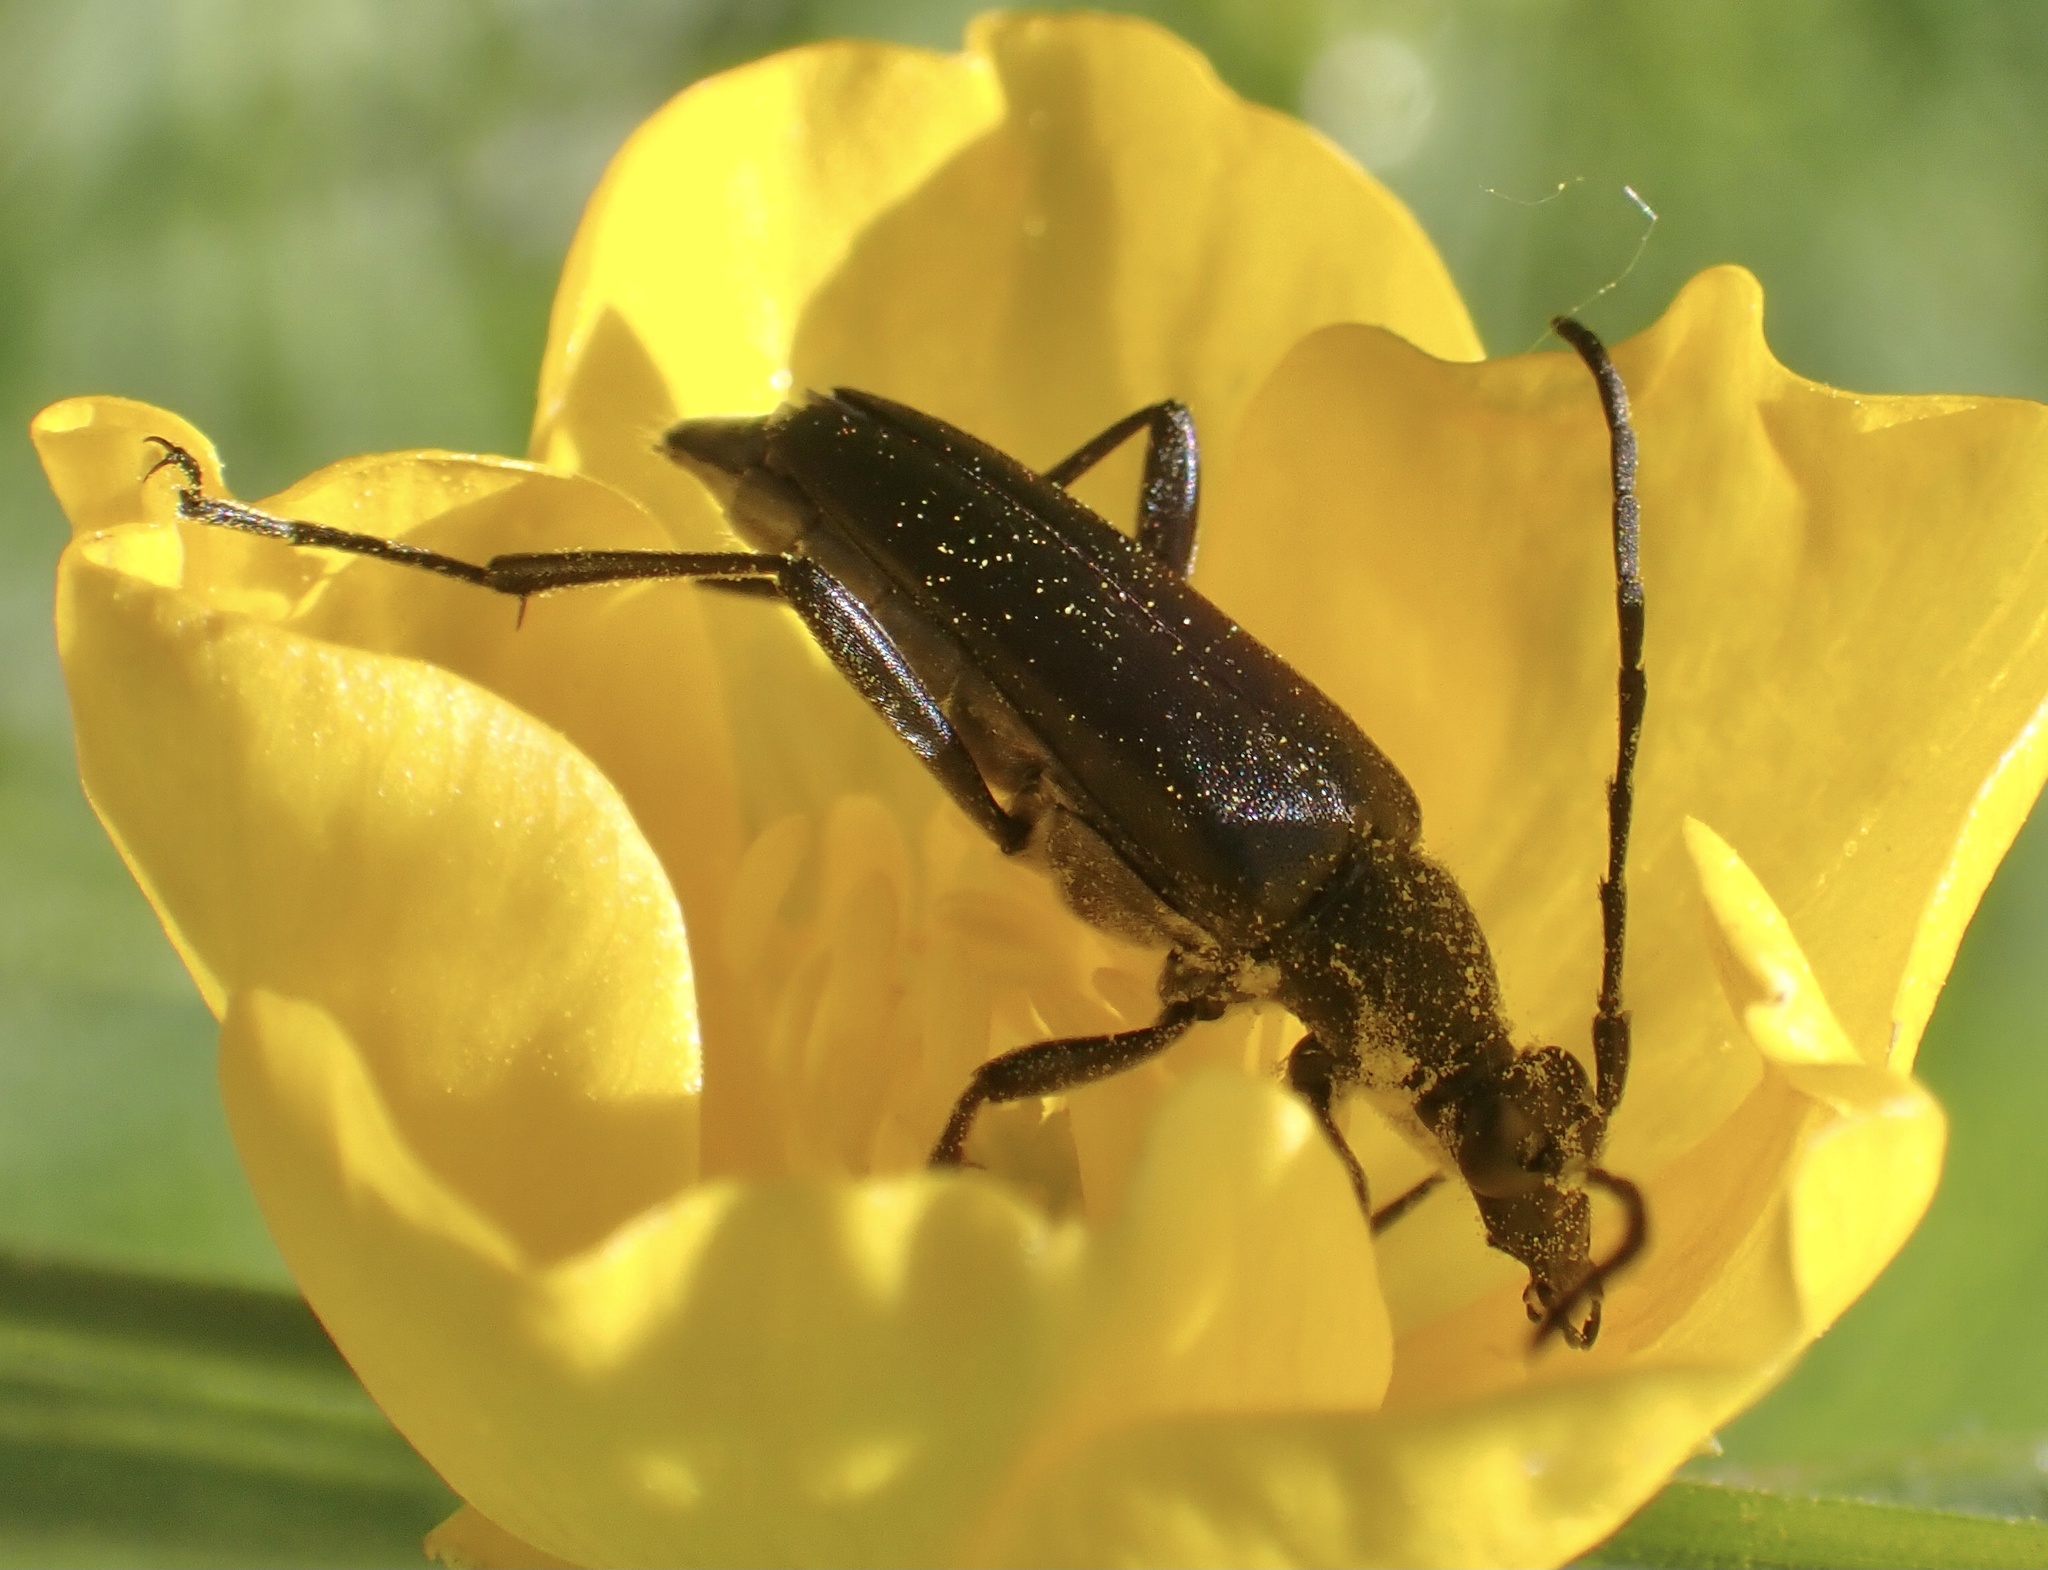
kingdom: Animalia
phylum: Arthropoda
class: Insecta
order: Coleoptera
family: Cerambycidae
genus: Leptura
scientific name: Leptura aethiops
